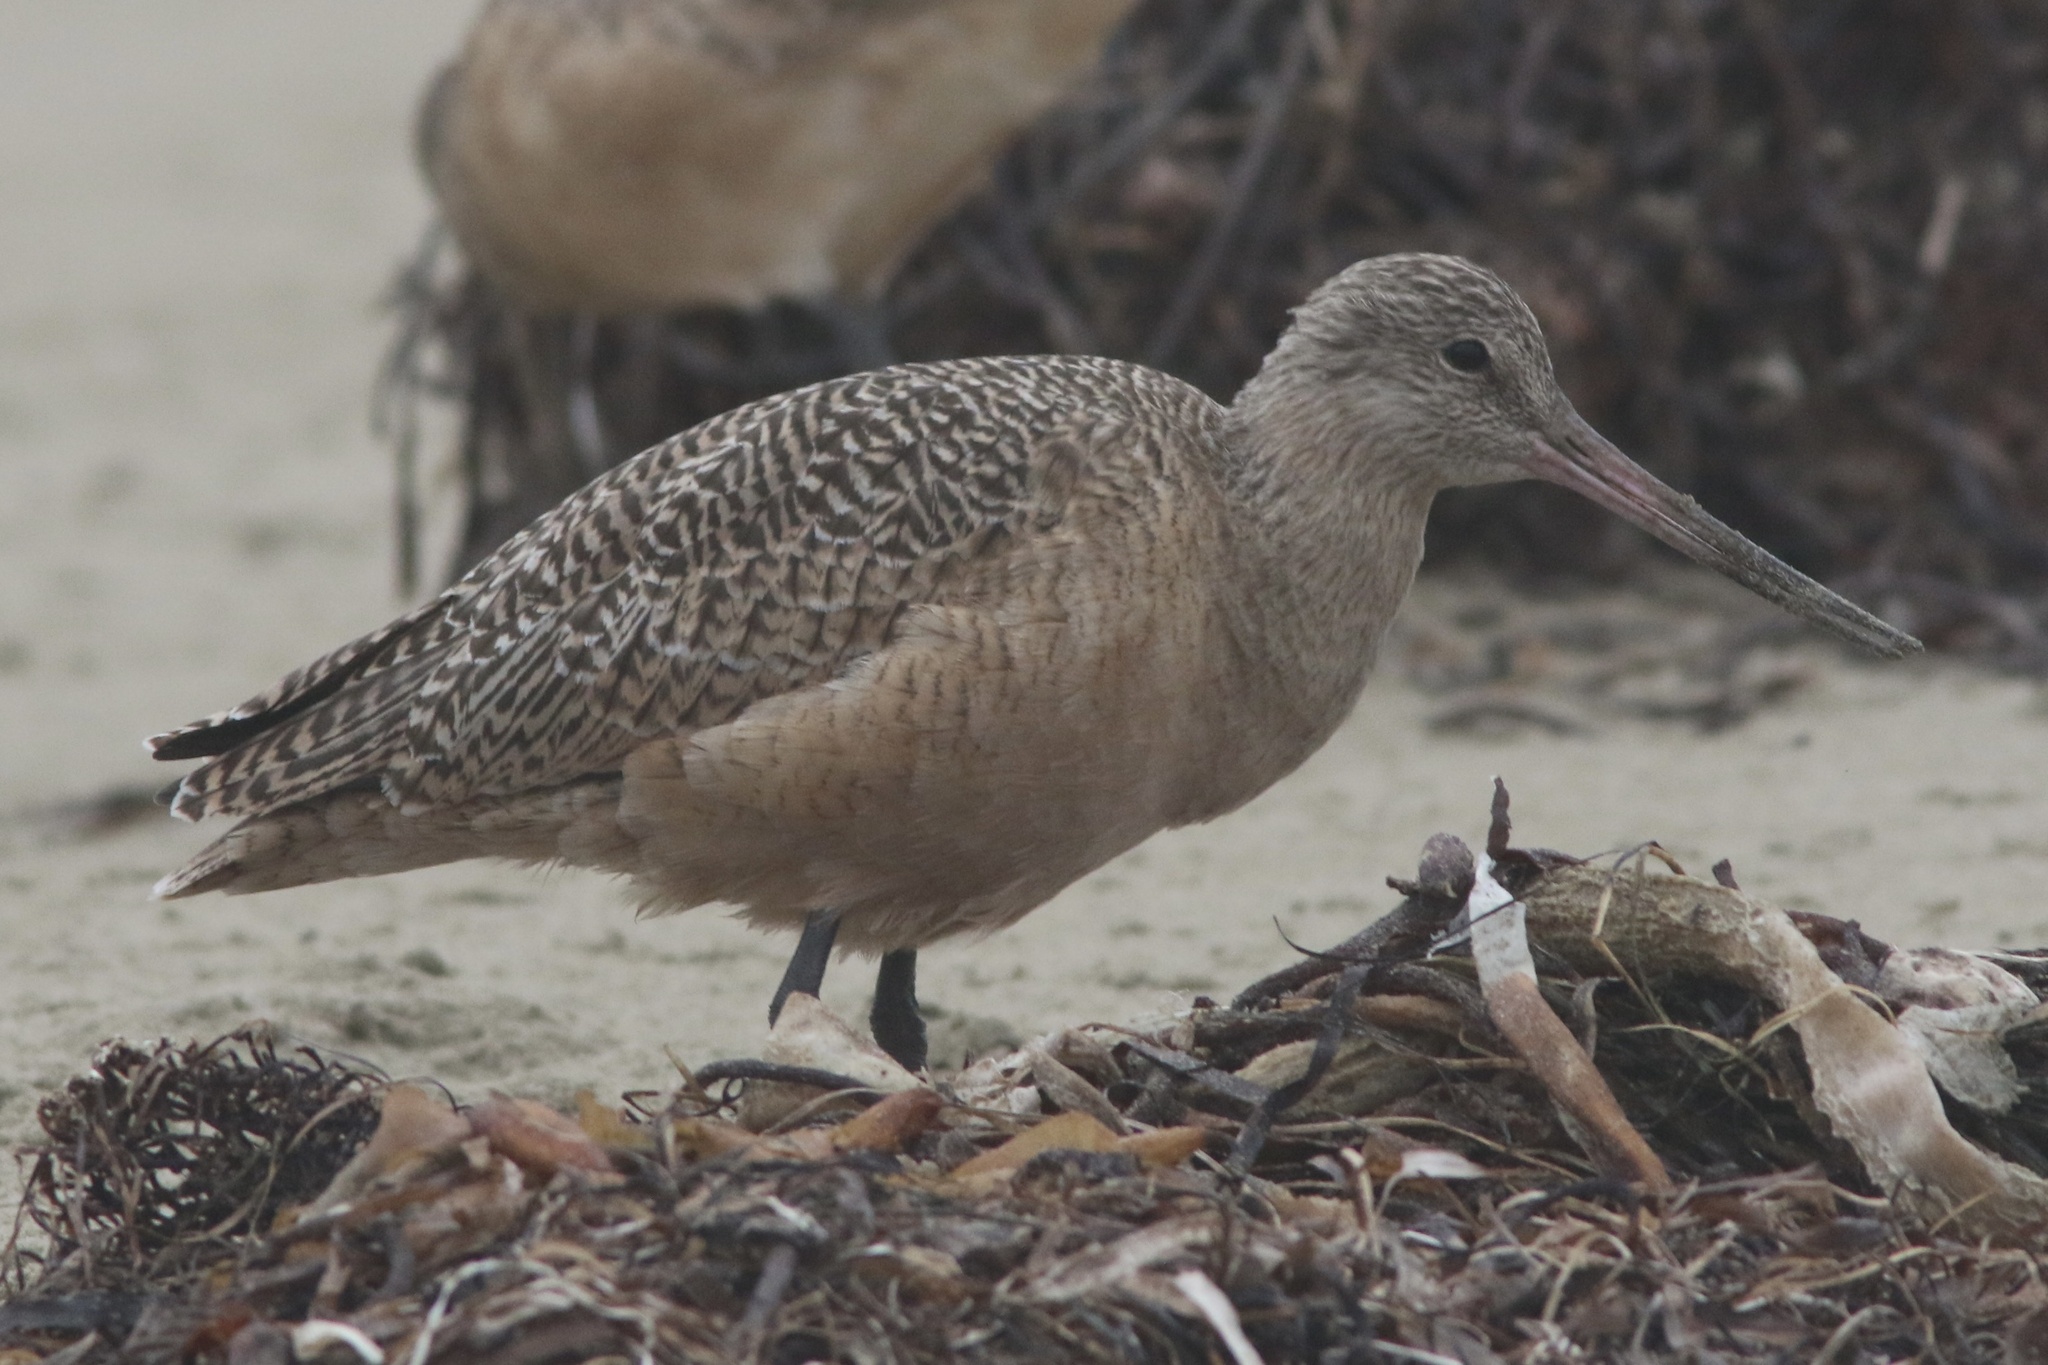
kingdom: Animalia
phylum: Chordata
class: Aves
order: Charadriiformes
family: Scolopacidae
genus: Limosa
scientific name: Limosa fedoa
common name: Marbled godwit
